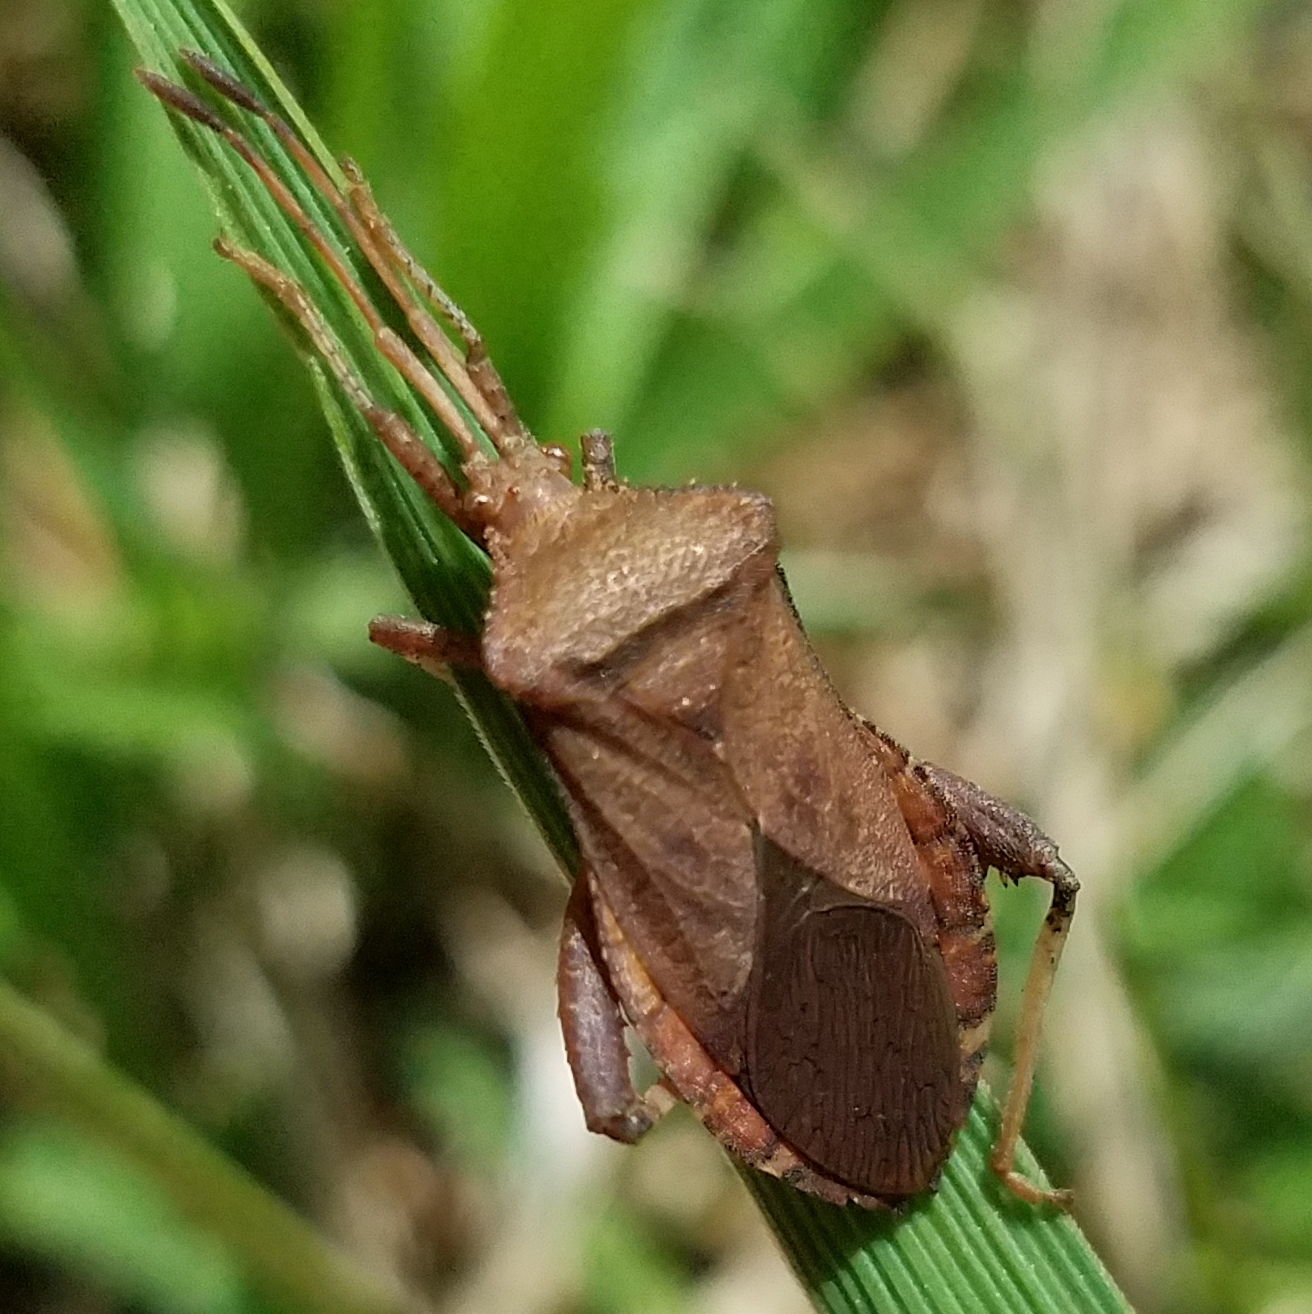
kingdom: Animalia
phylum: Arthropoda
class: Insecta
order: Hemiptera
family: Coreidae
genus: Euthochtha
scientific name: Euthochtha galeator
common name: Helmeted squash bug
